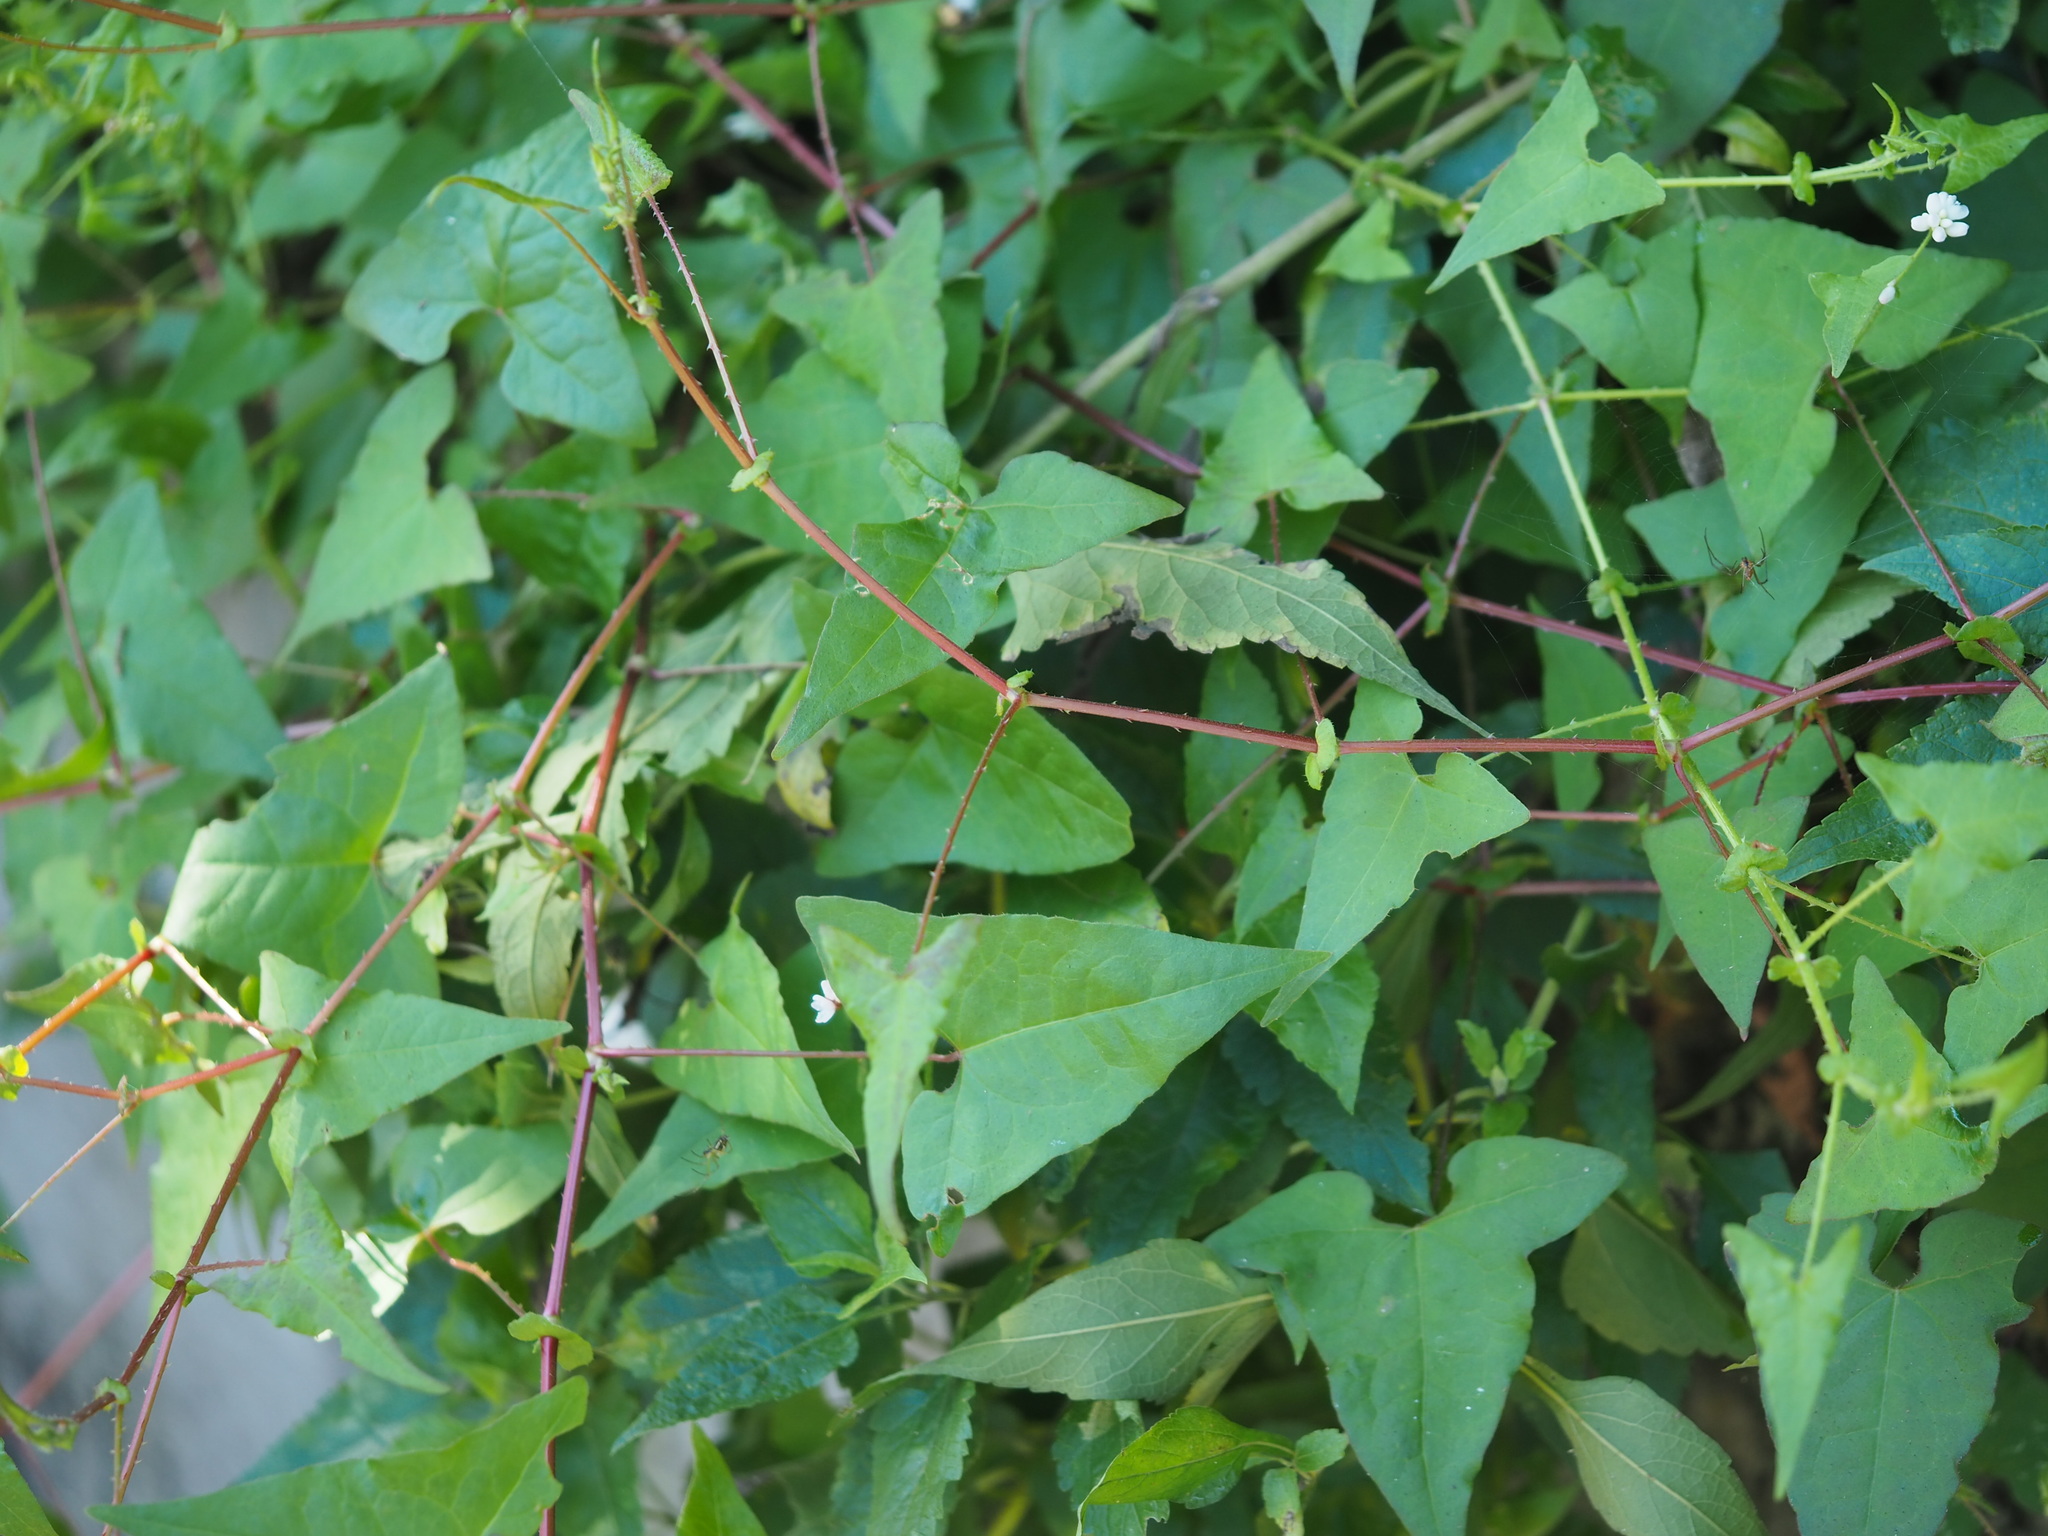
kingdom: Plantae
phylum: Tracheophyta
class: Magnoliopsida
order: Caryophyllales
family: Polygonaceae
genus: Persicaria
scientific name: Persicaria senticosa
